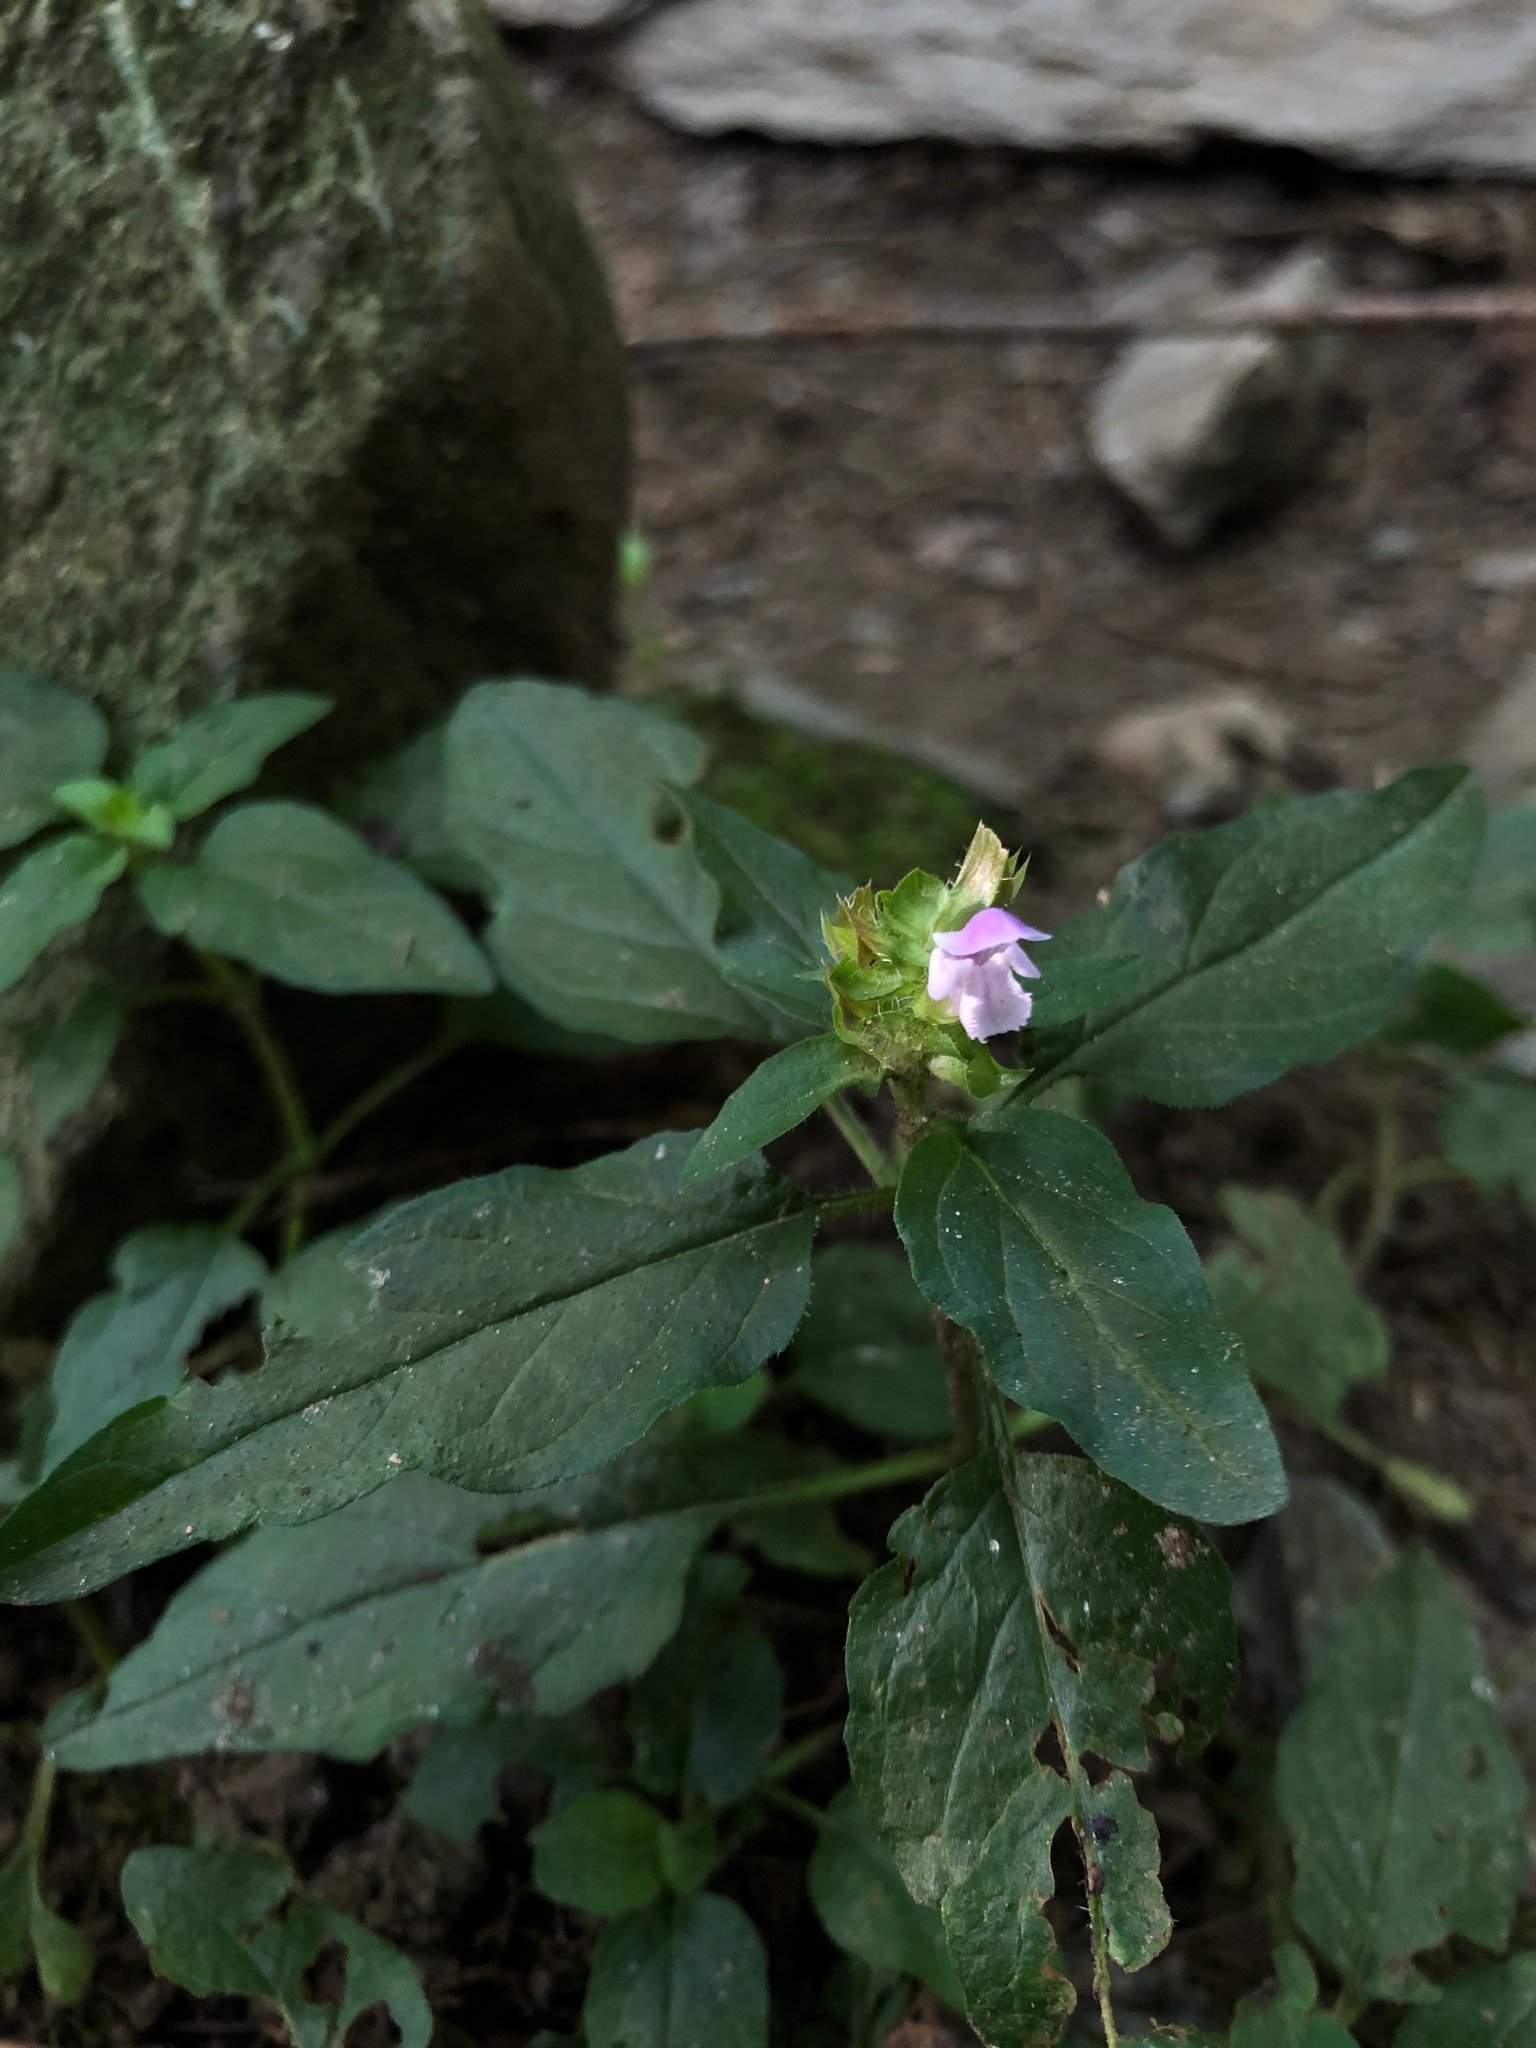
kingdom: Plantae
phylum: Tracheophyta
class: Magnoliopsida
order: Lamiales
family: Lamiaceae
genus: Prunella
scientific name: Prunella vulgaris
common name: Heal-all
